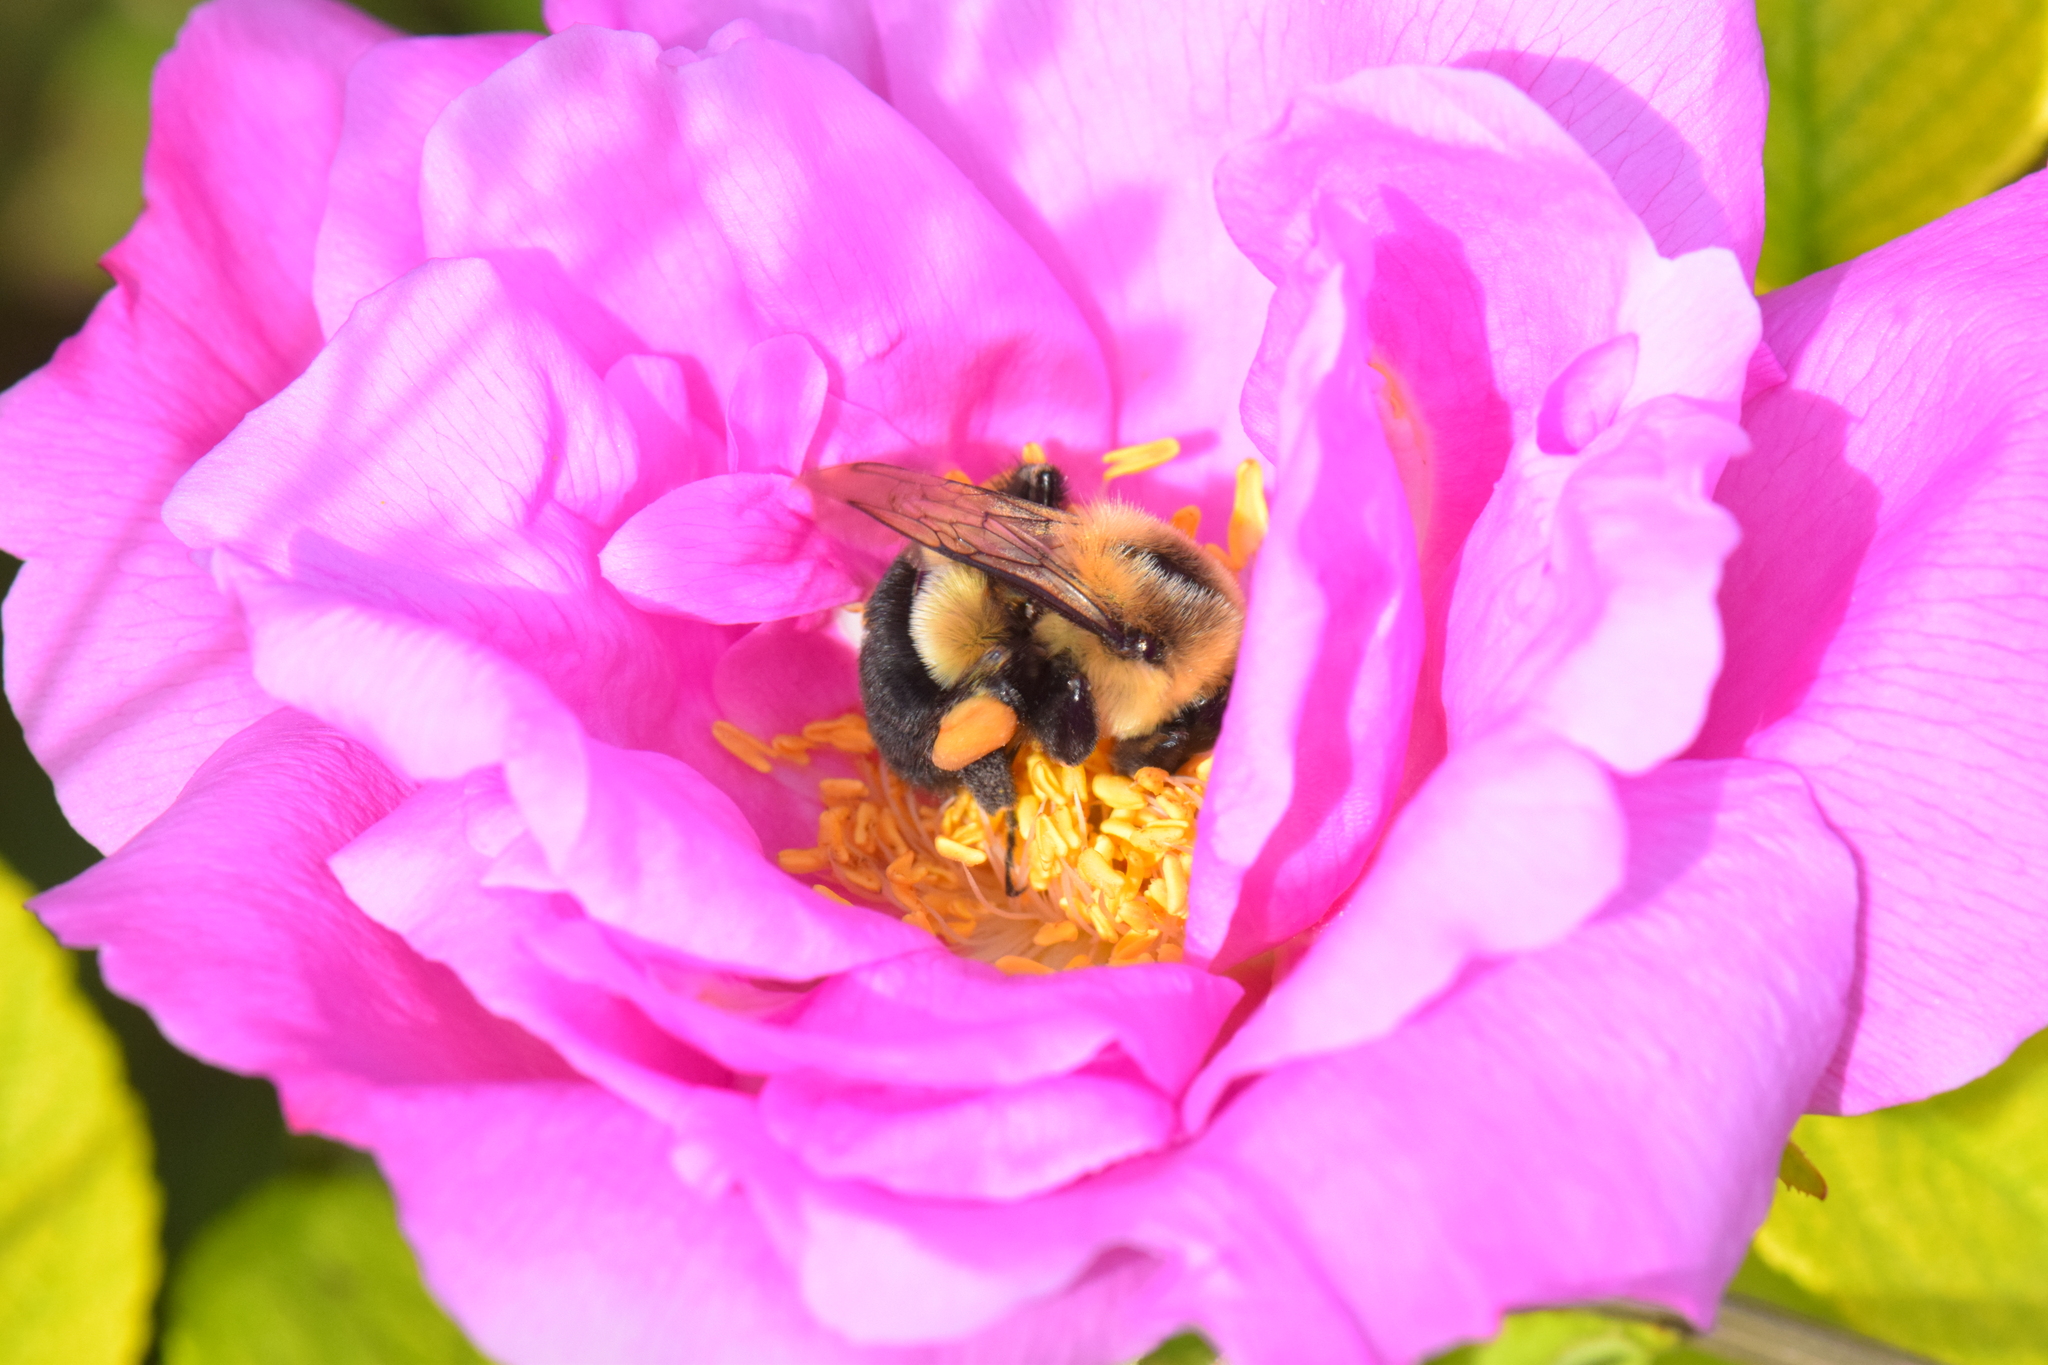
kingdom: Animalia
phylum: Arthropoda
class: Insecta
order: Hymenoptera
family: Apidae
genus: Bombus
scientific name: Bombus impatiens
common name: Common eastern bumble bee
